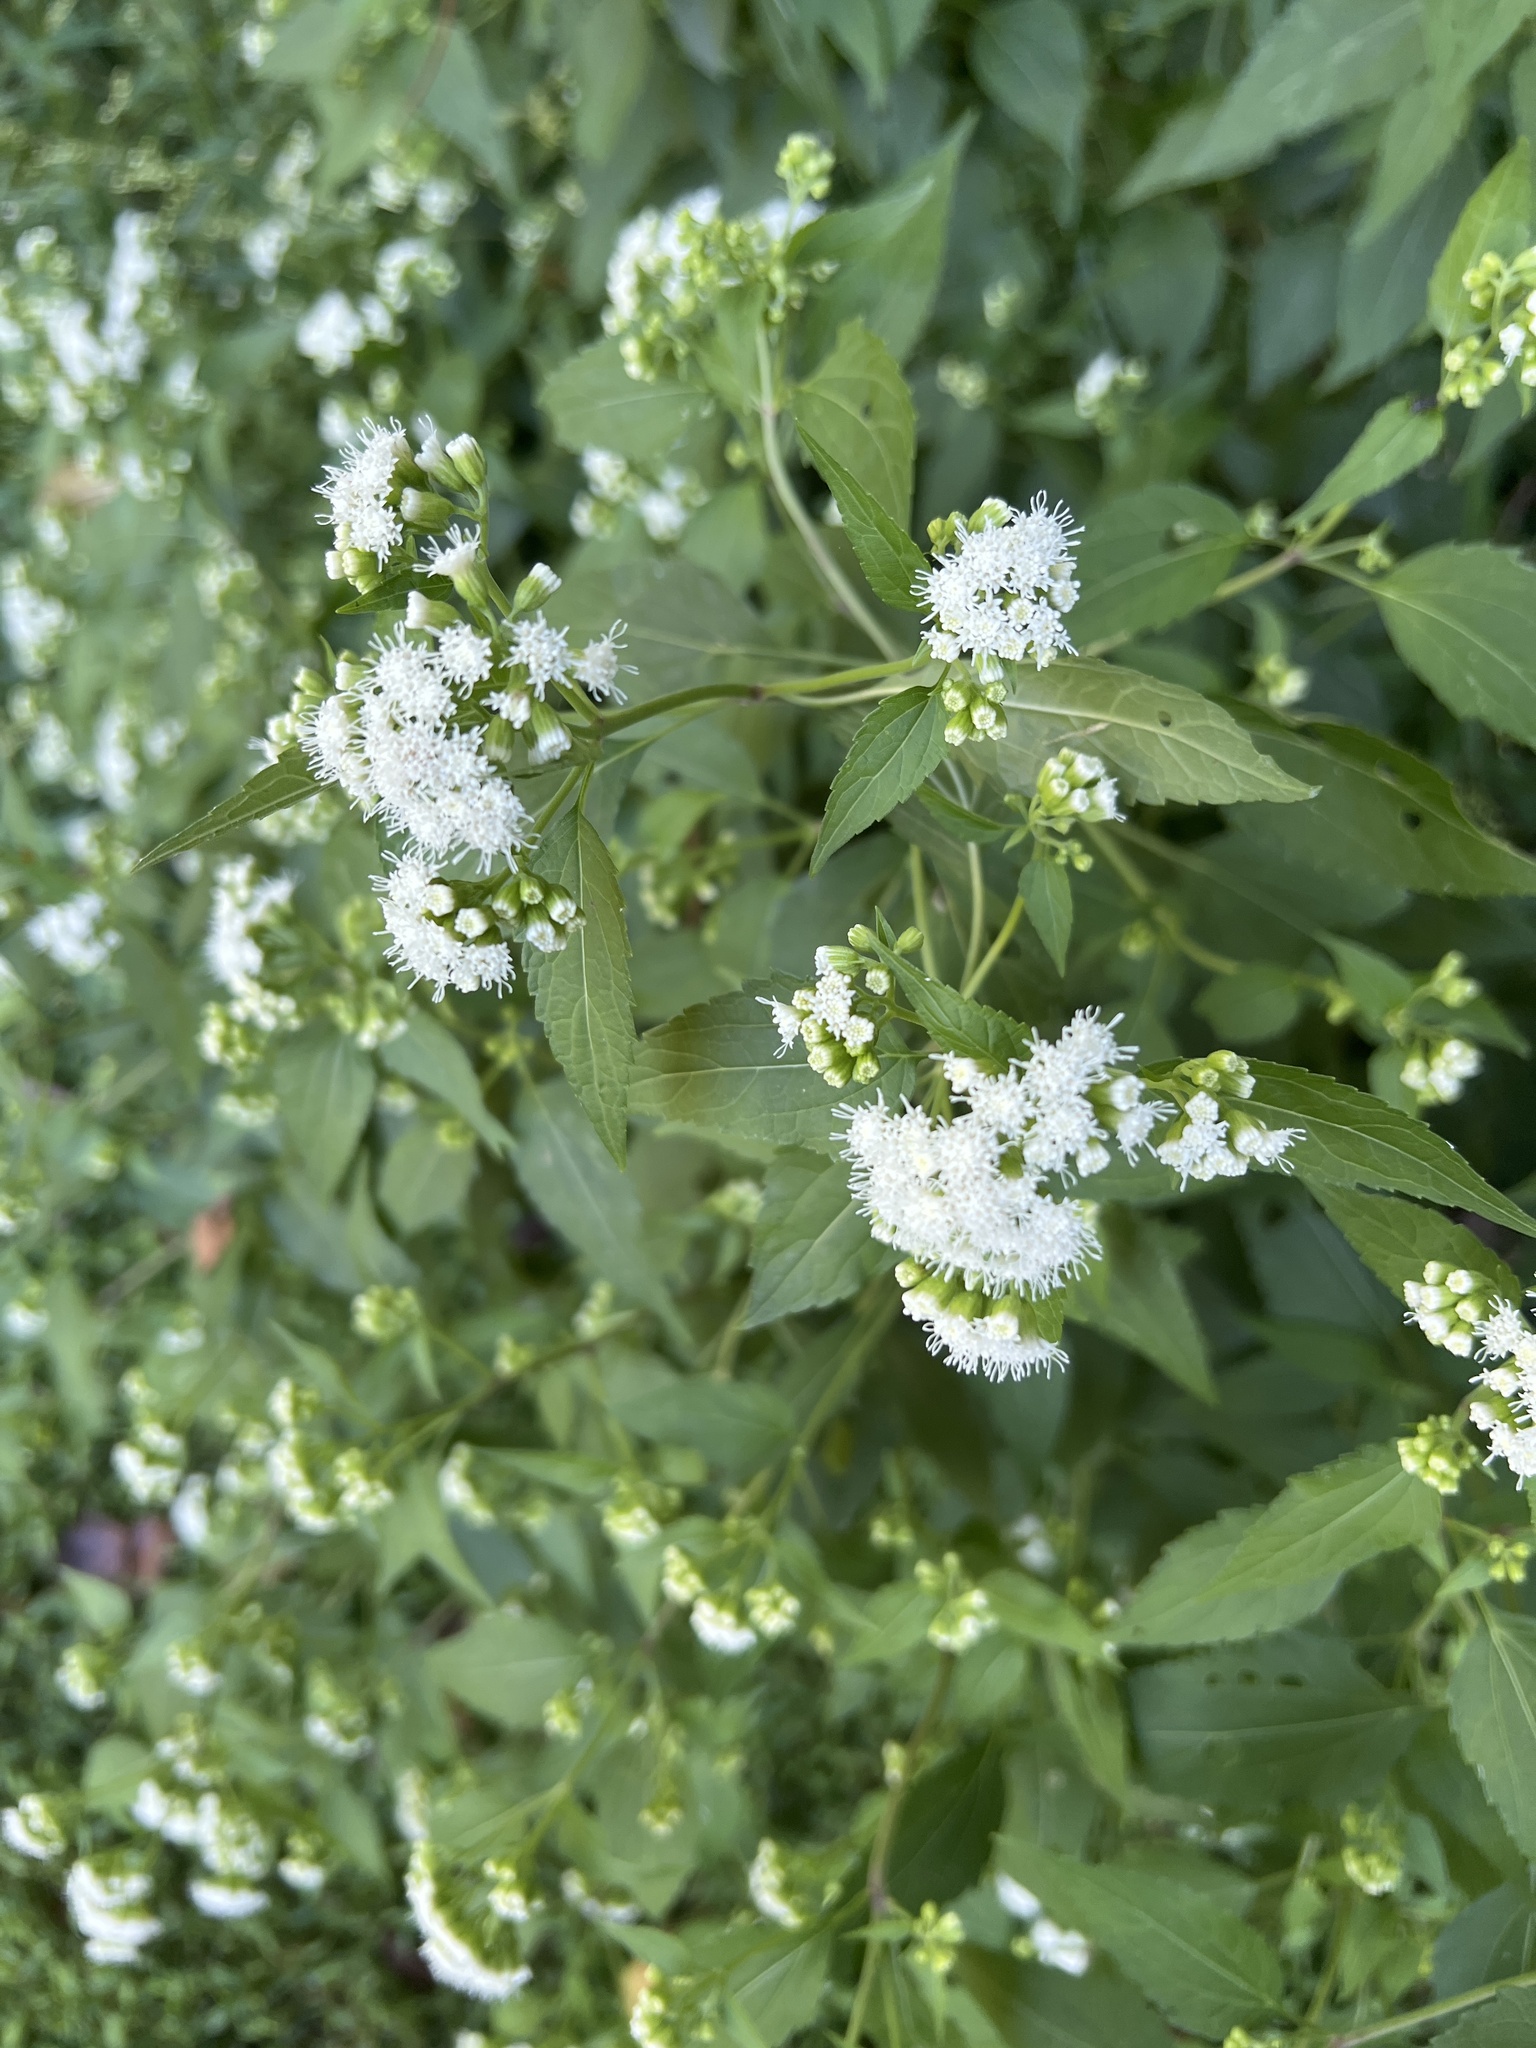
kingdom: Plantae
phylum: Tracheophyta
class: Magnoliopsida
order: Asterales
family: Asteraceae
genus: Ageratina
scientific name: Ageratina altissima
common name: White snakeroot
